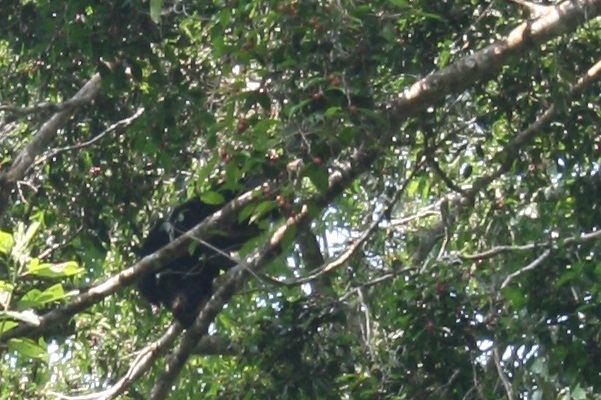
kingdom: Animalia
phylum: Chordata
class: Mammalia
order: Carnivora
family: Ursidae
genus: Helarctos
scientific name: Helarctos malayanus
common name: Sun bear
